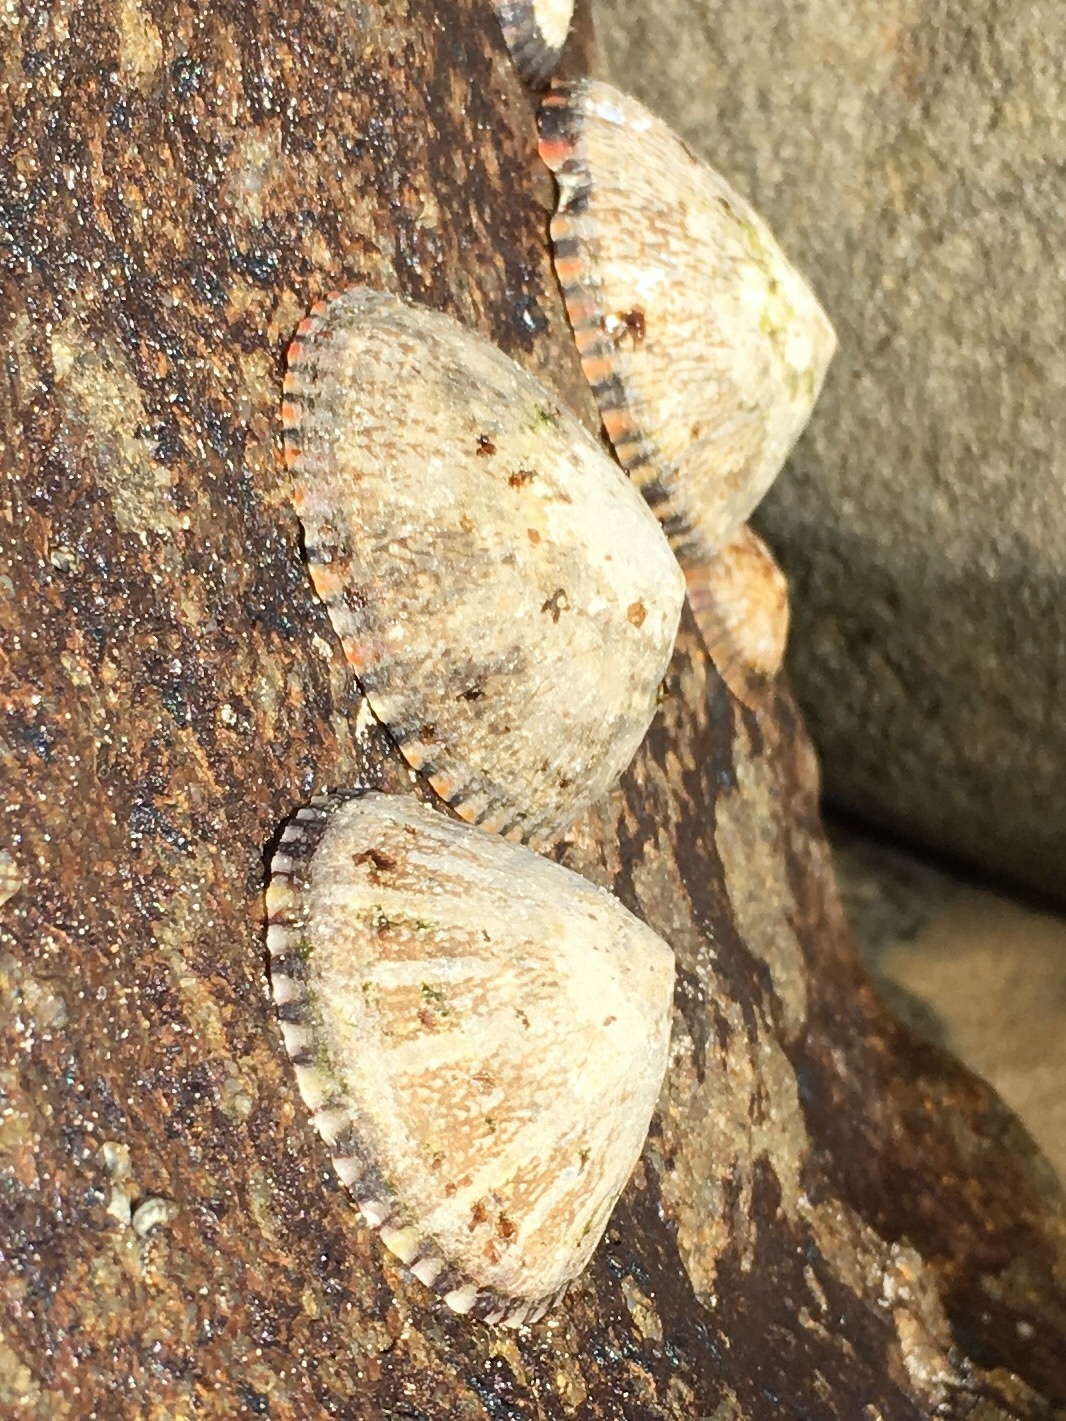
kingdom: Animalia
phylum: Mollusca
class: Gastropoda
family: Nacellidae
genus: Cellana
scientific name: Cellana tramoserica
